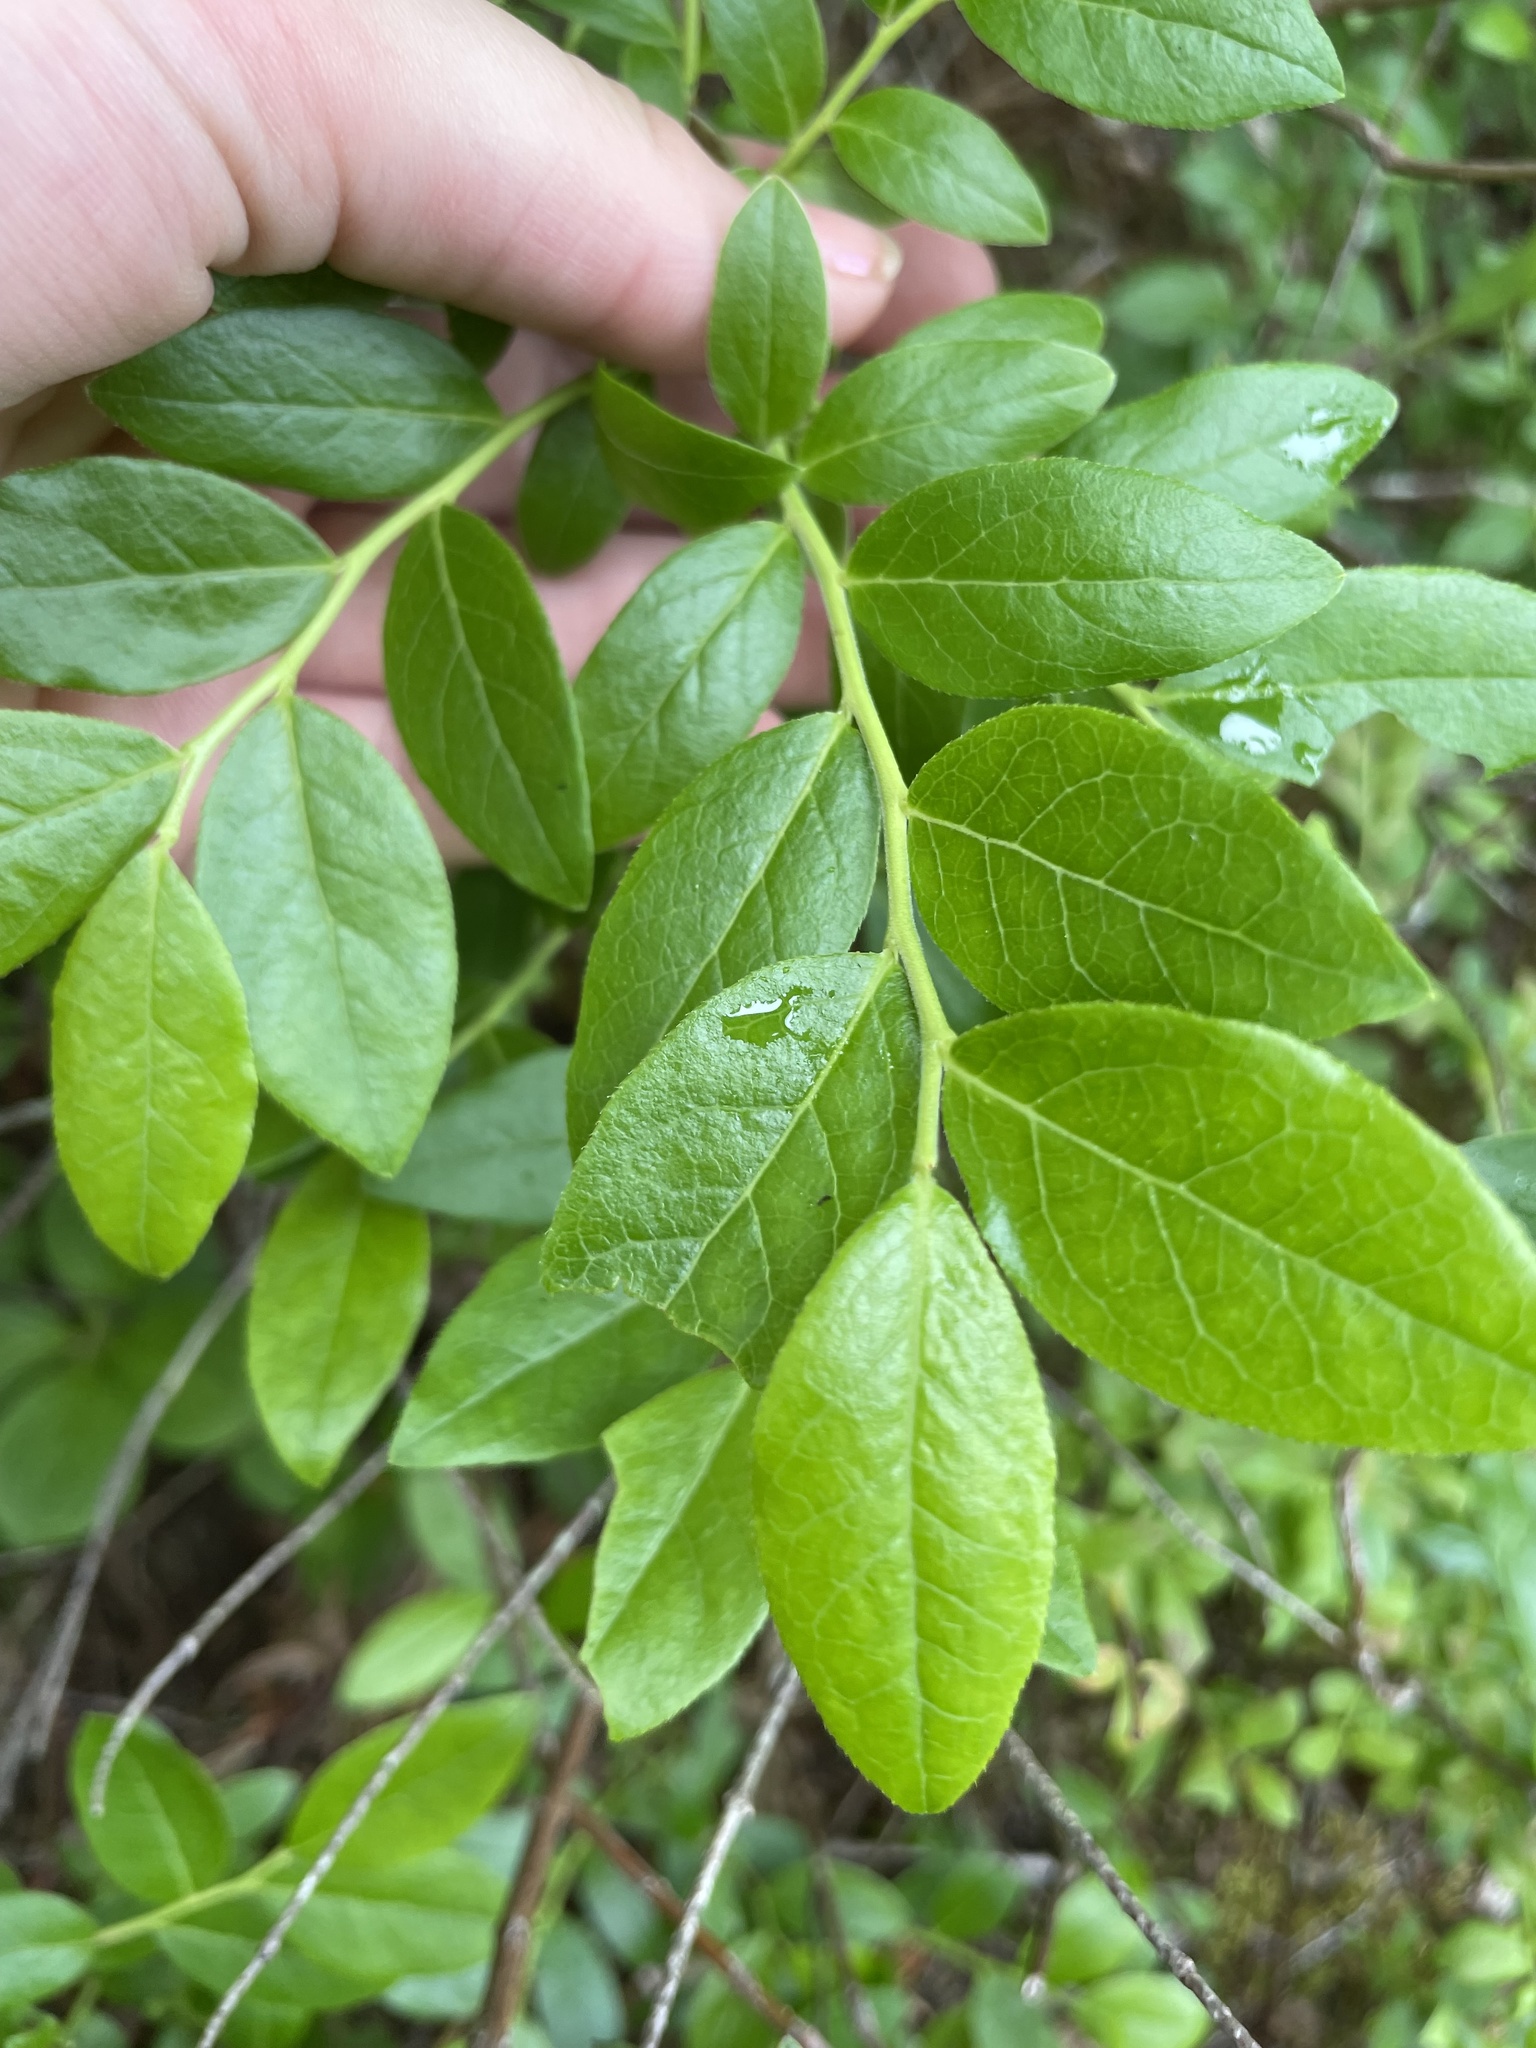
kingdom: Plantae
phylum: Tracheophyta
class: Magnoliopsida
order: Ericales
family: Ericaceae
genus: Vaccinium
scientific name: Vaccinium angustifolium
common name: Early lowbush blueberry
